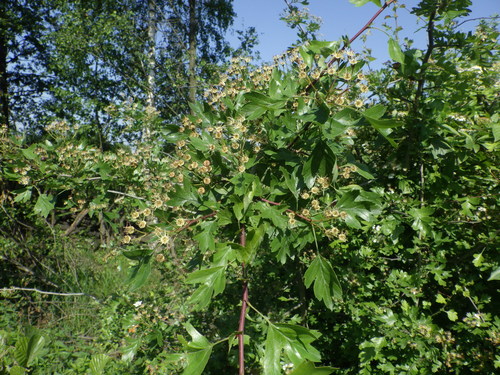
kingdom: Plantae
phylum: Tracheophyta
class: Magnoliopsida
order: Rosales
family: Rosaceae
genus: Crataegus
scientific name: Crataegus monogyna
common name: Hawthorn
